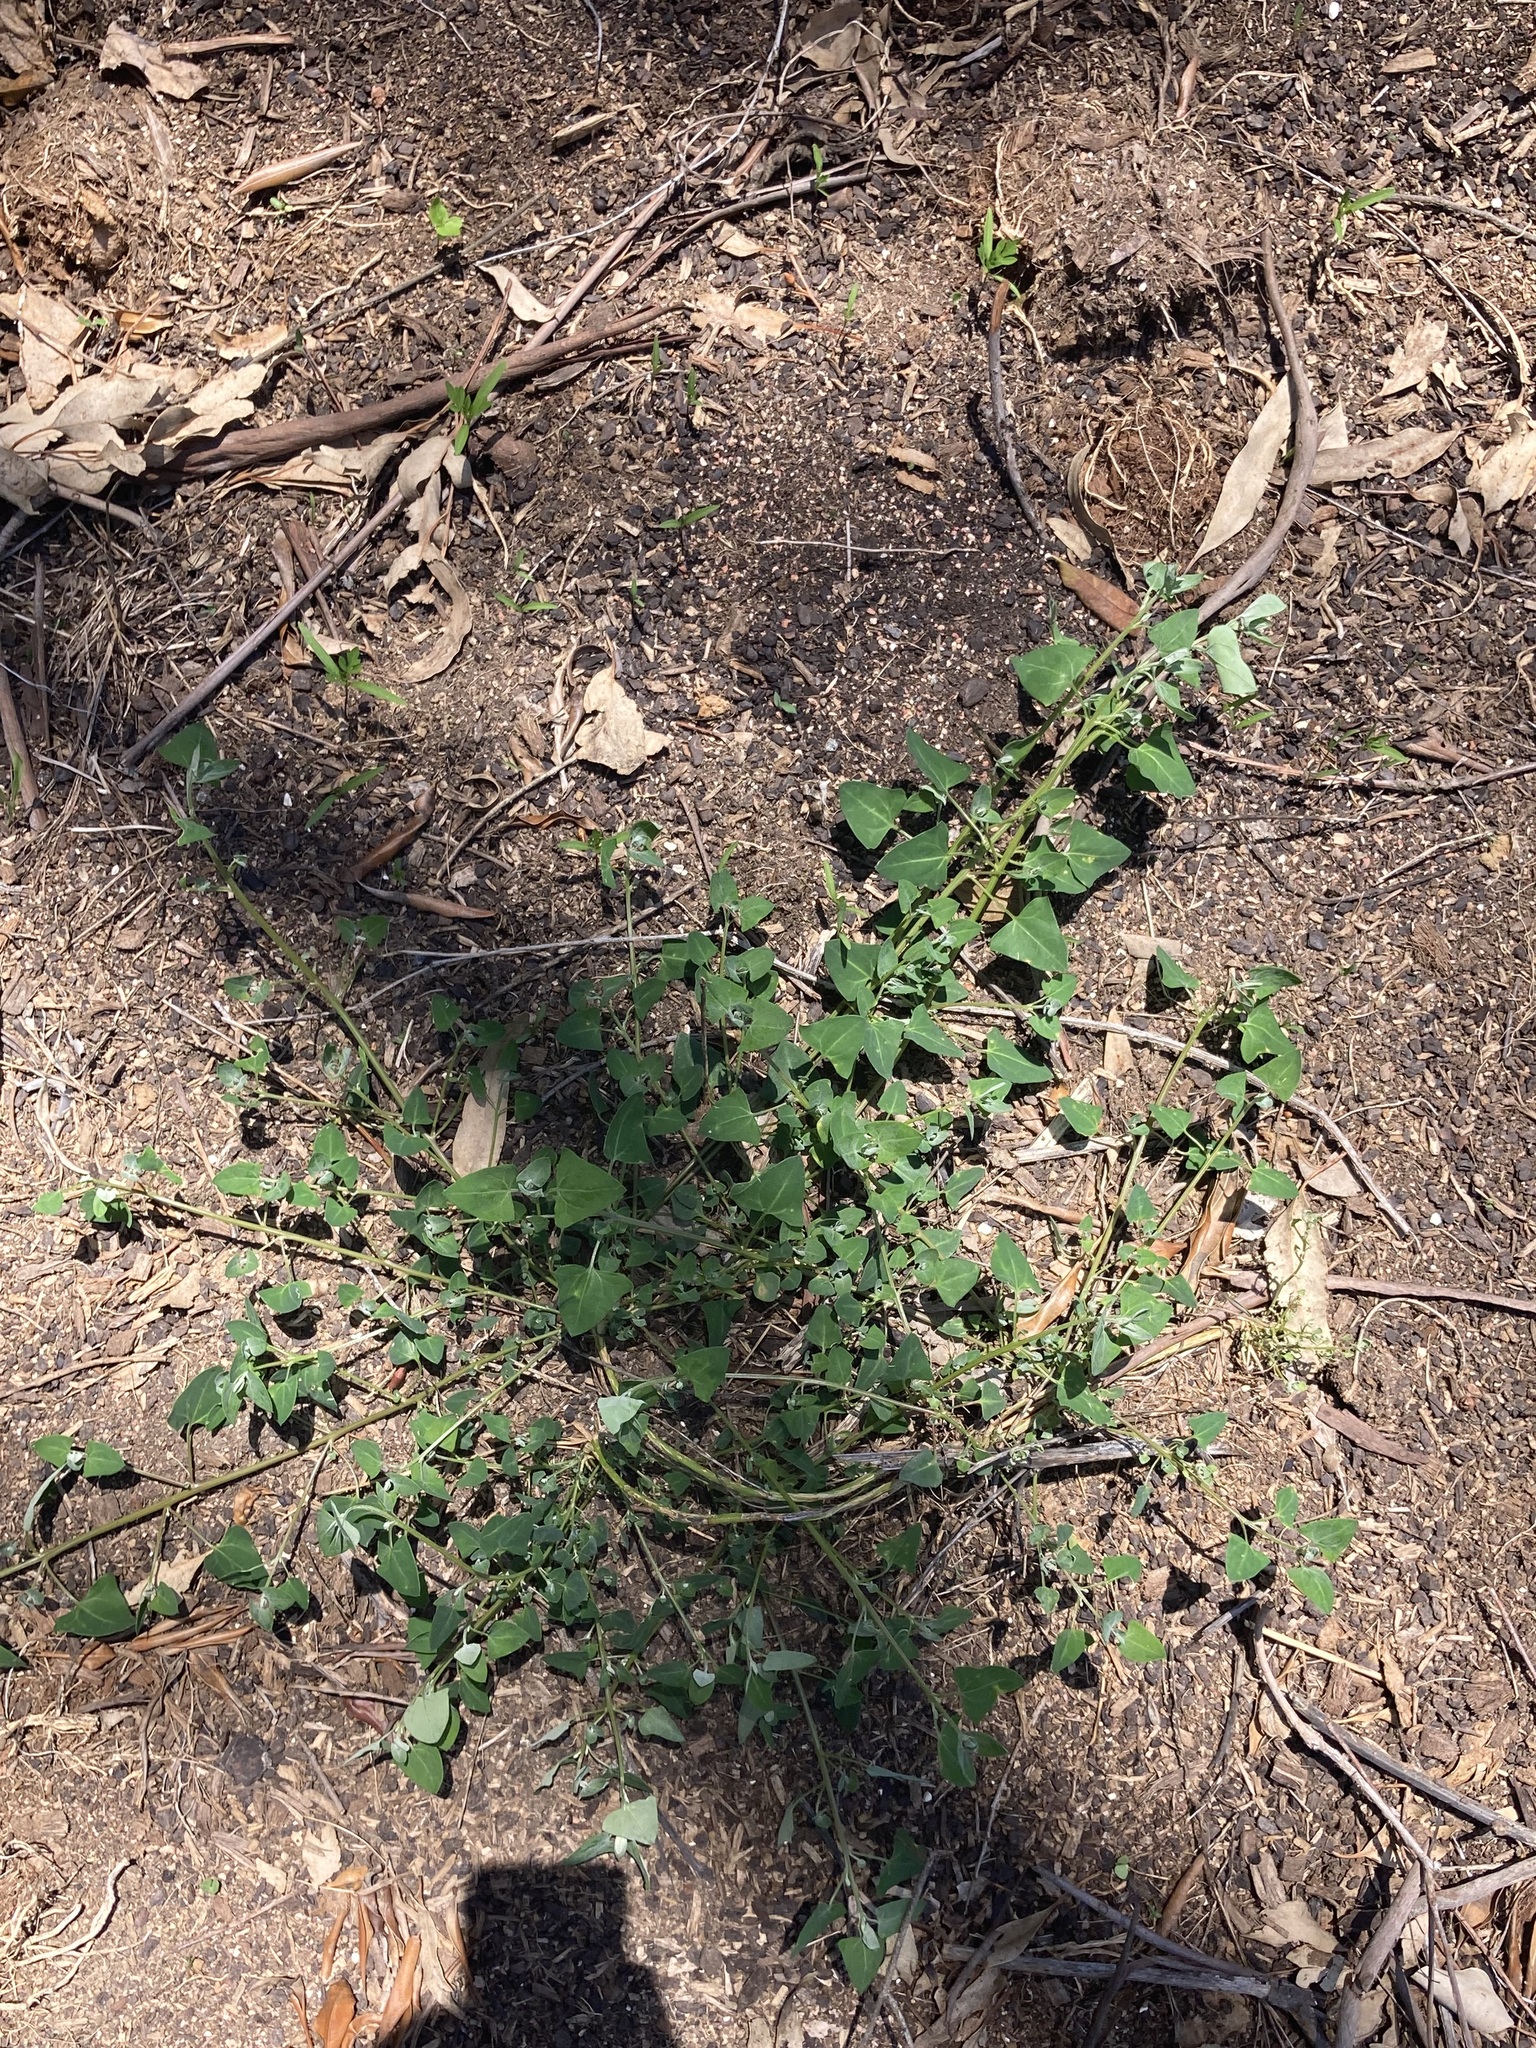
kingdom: Plantae
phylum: Tracheophyta
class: Magnoliopsida
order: Caryophyllales
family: Amaranthaceae
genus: Chenopodium
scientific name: Chenopodium trigonon
